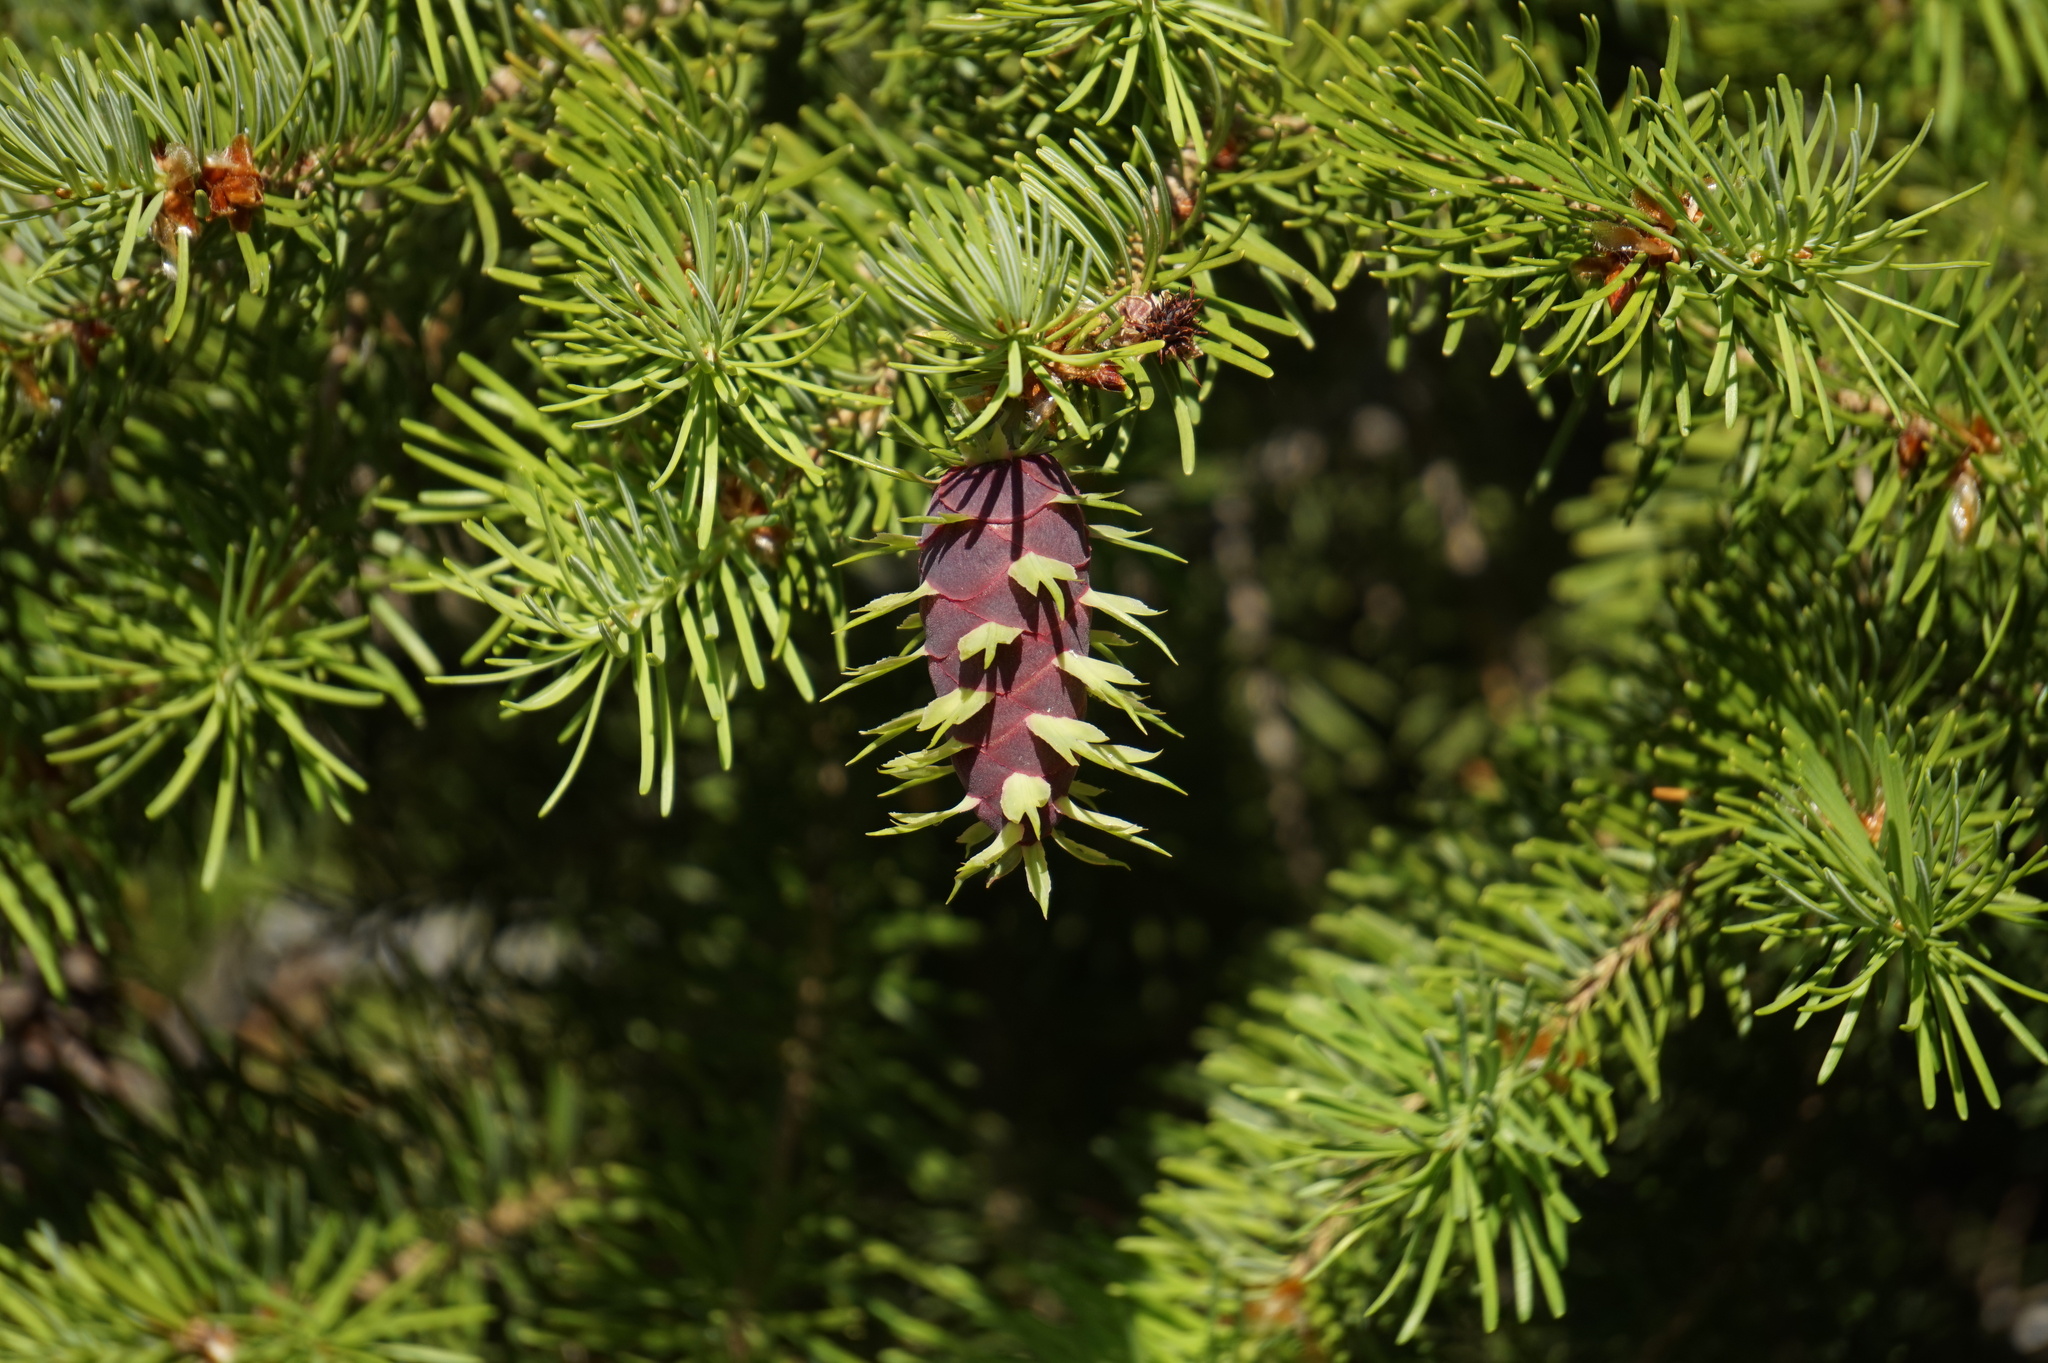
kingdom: Plantae
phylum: Tracheophyta
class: Pinopsida
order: Pinales
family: Pinaceae
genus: Pseudotsuga
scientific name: Pseudotsuga menziesii
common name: Douglas fir
